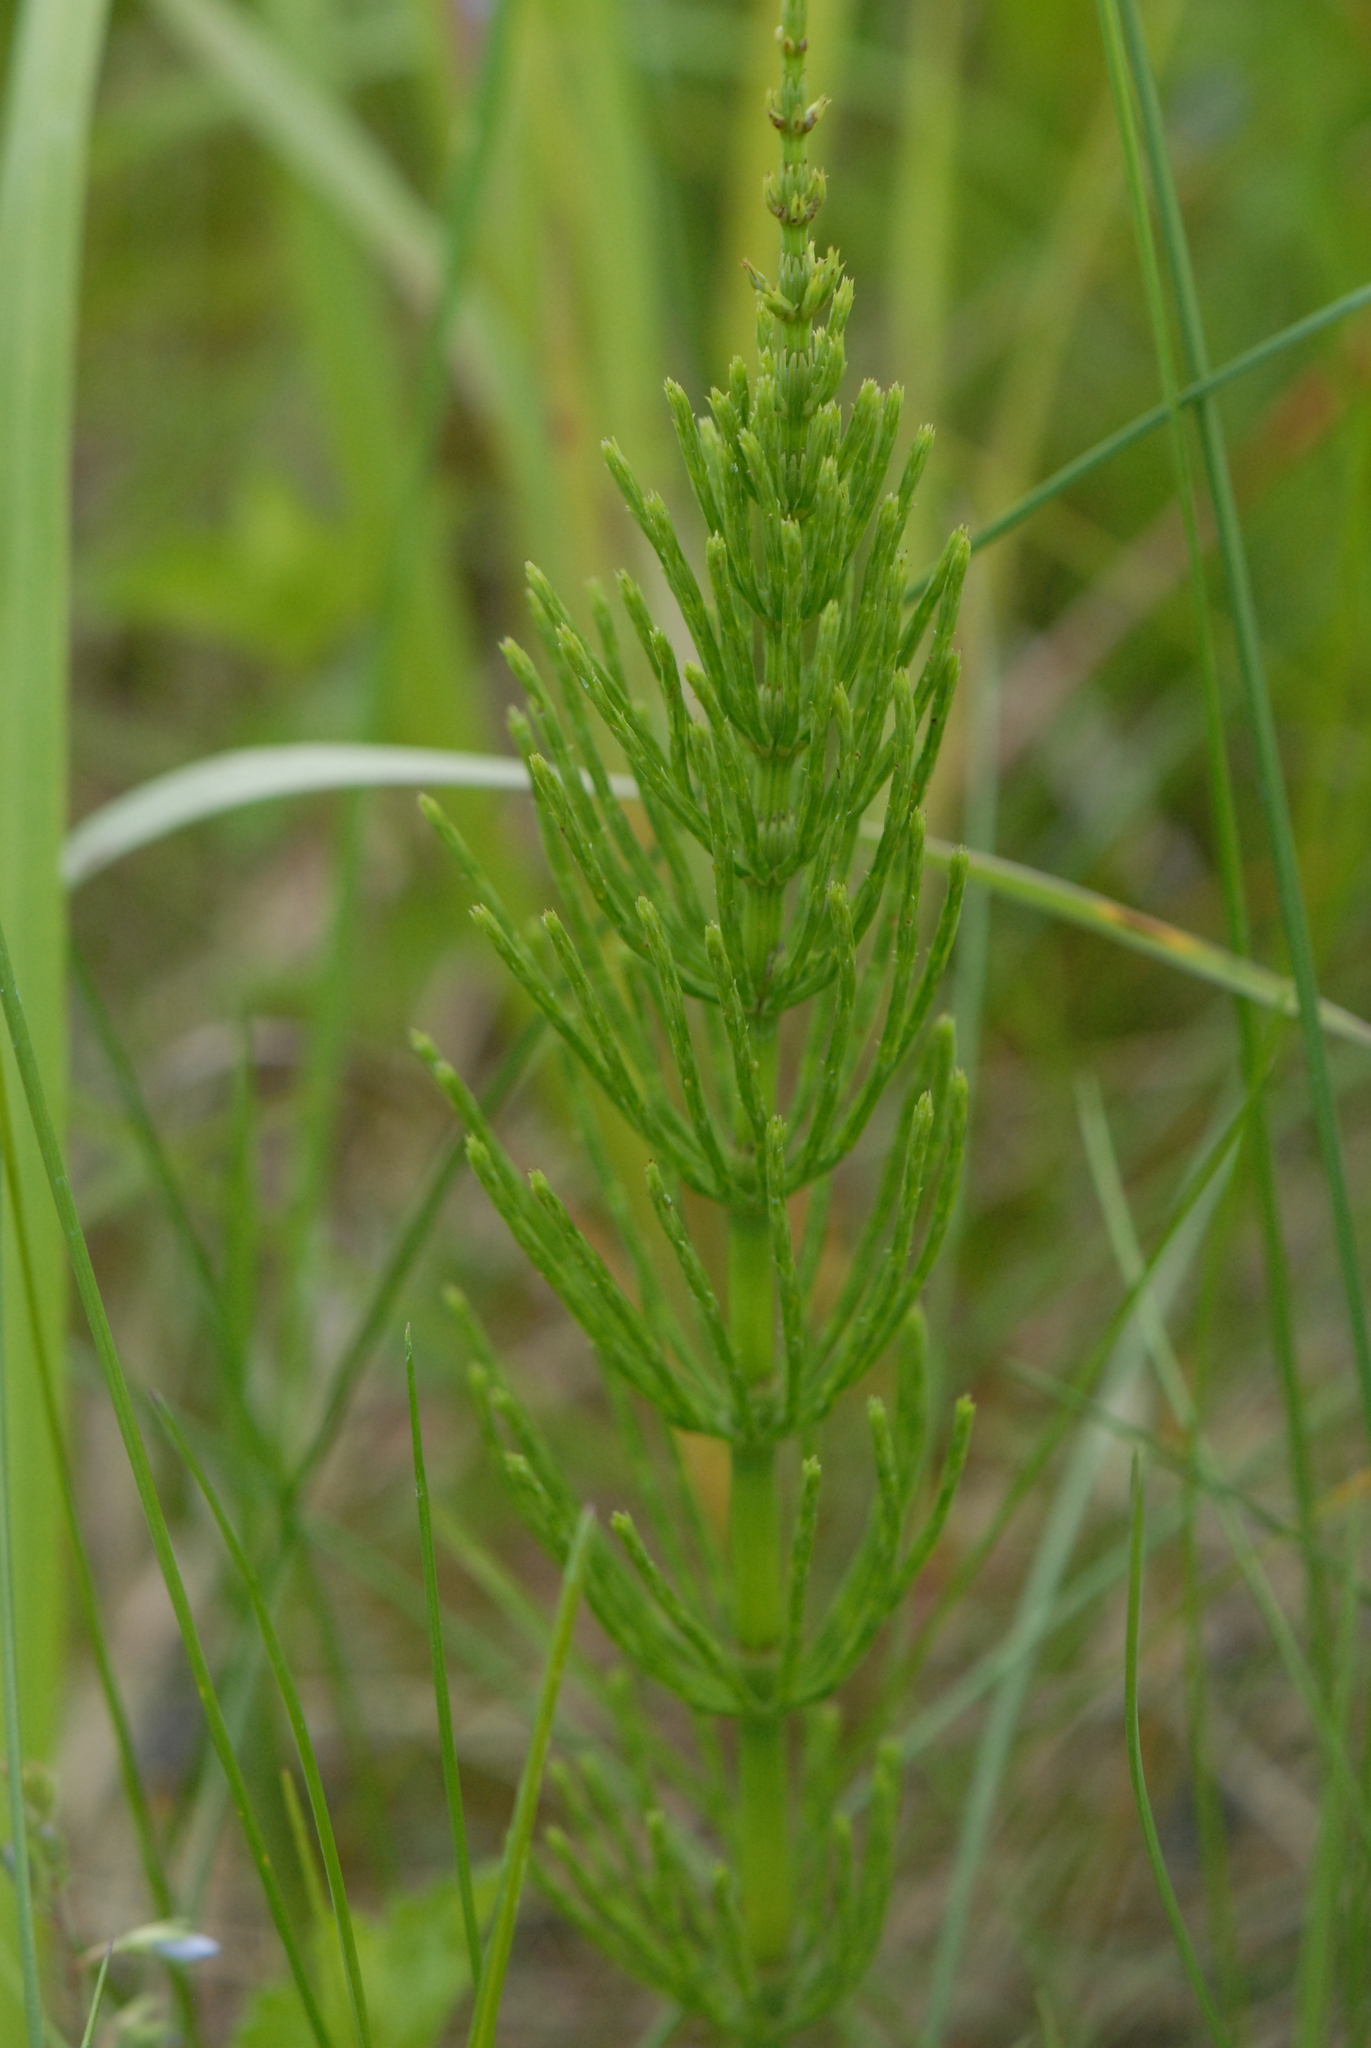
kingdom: Plantae
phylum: Tracheophyta
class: Polypodiopsida
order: Equisetales
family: Equisetaceae
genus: Equisetum
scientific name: Equisetum arvense
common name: Field horsetail
